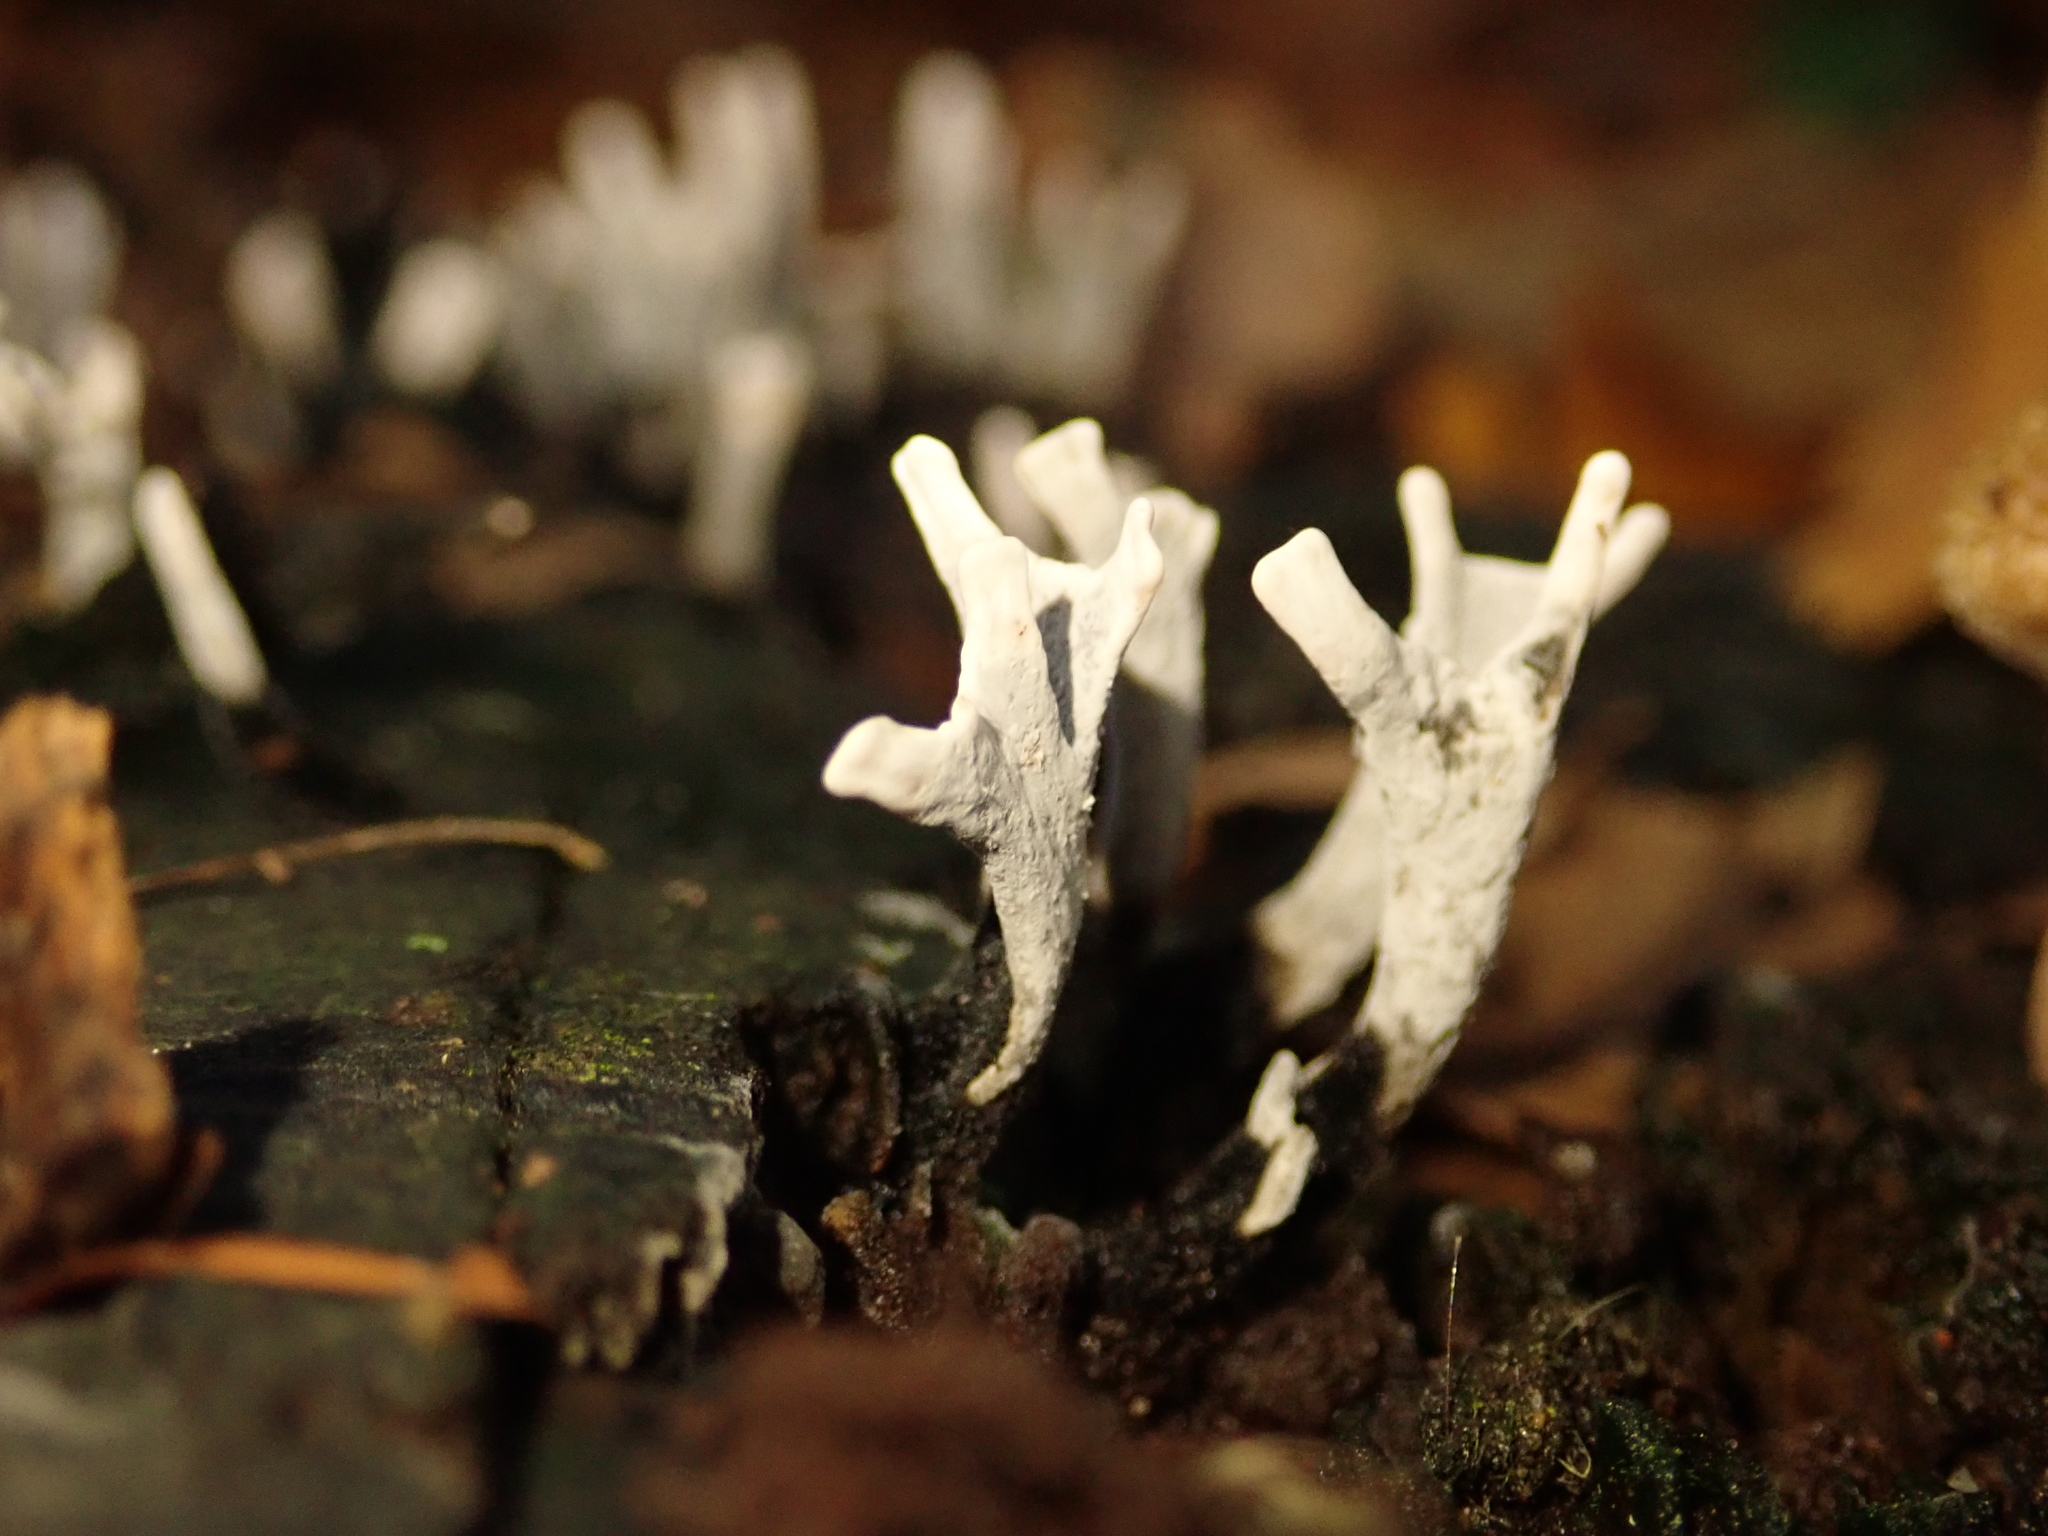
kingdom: Fungi
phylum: Ascomycota
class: Sordariomycetes
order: Xylariales
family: Xylariaceae
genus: Xylaria
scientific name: Xylaria hypoxylon
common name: Candle-snuff fungus
